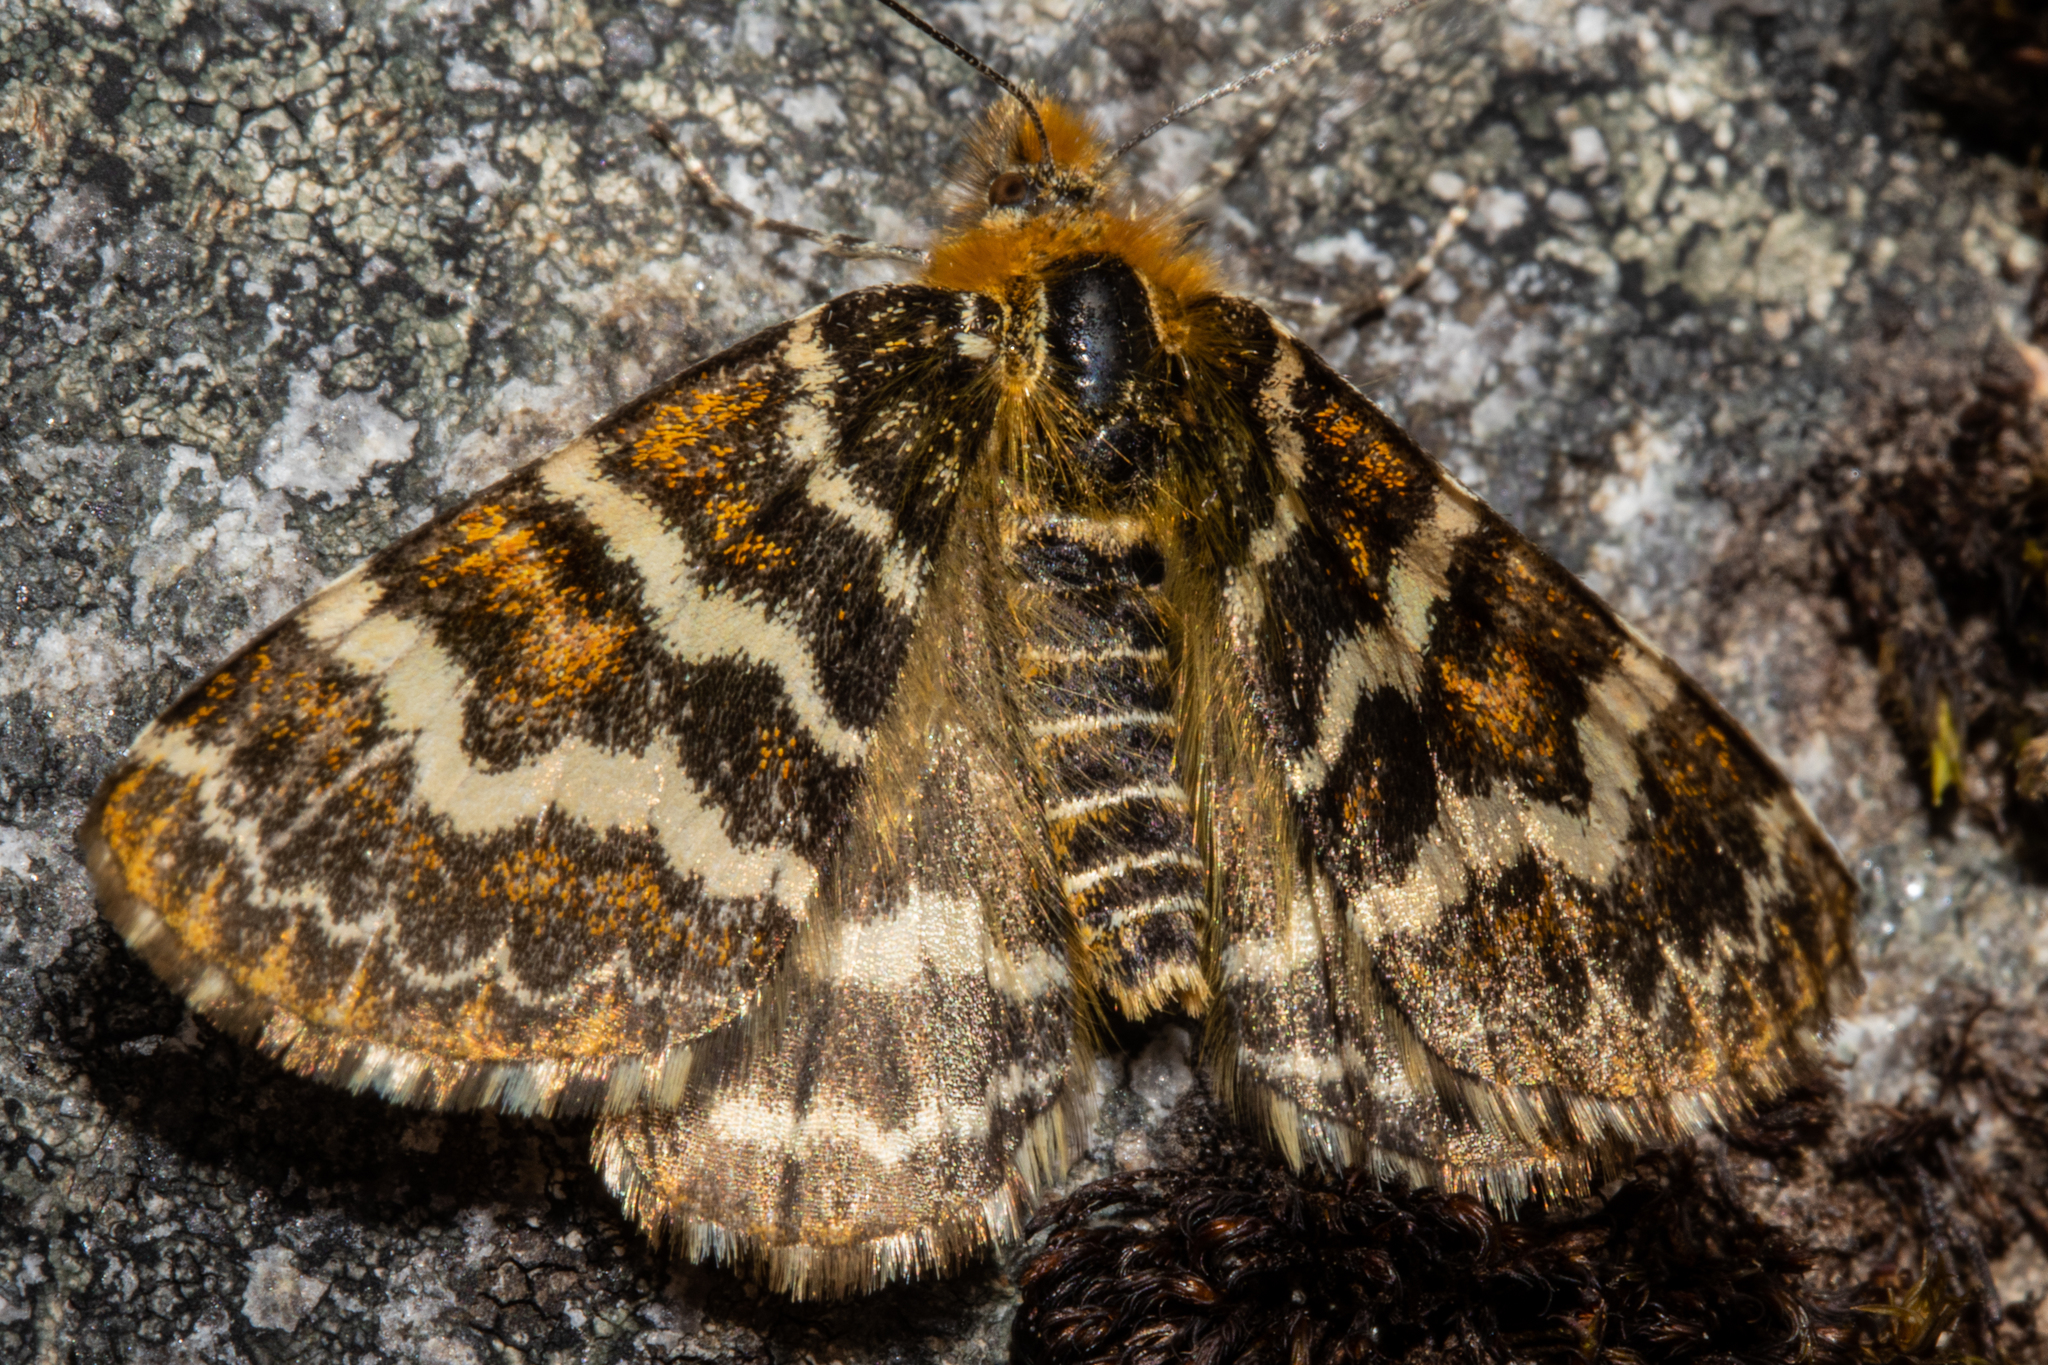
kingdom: Animalia
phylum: Arthropoda
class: Insecta
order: Lepidoptera
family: Geometridae
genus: Dasyuris
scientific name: Dasyuris callicrena
